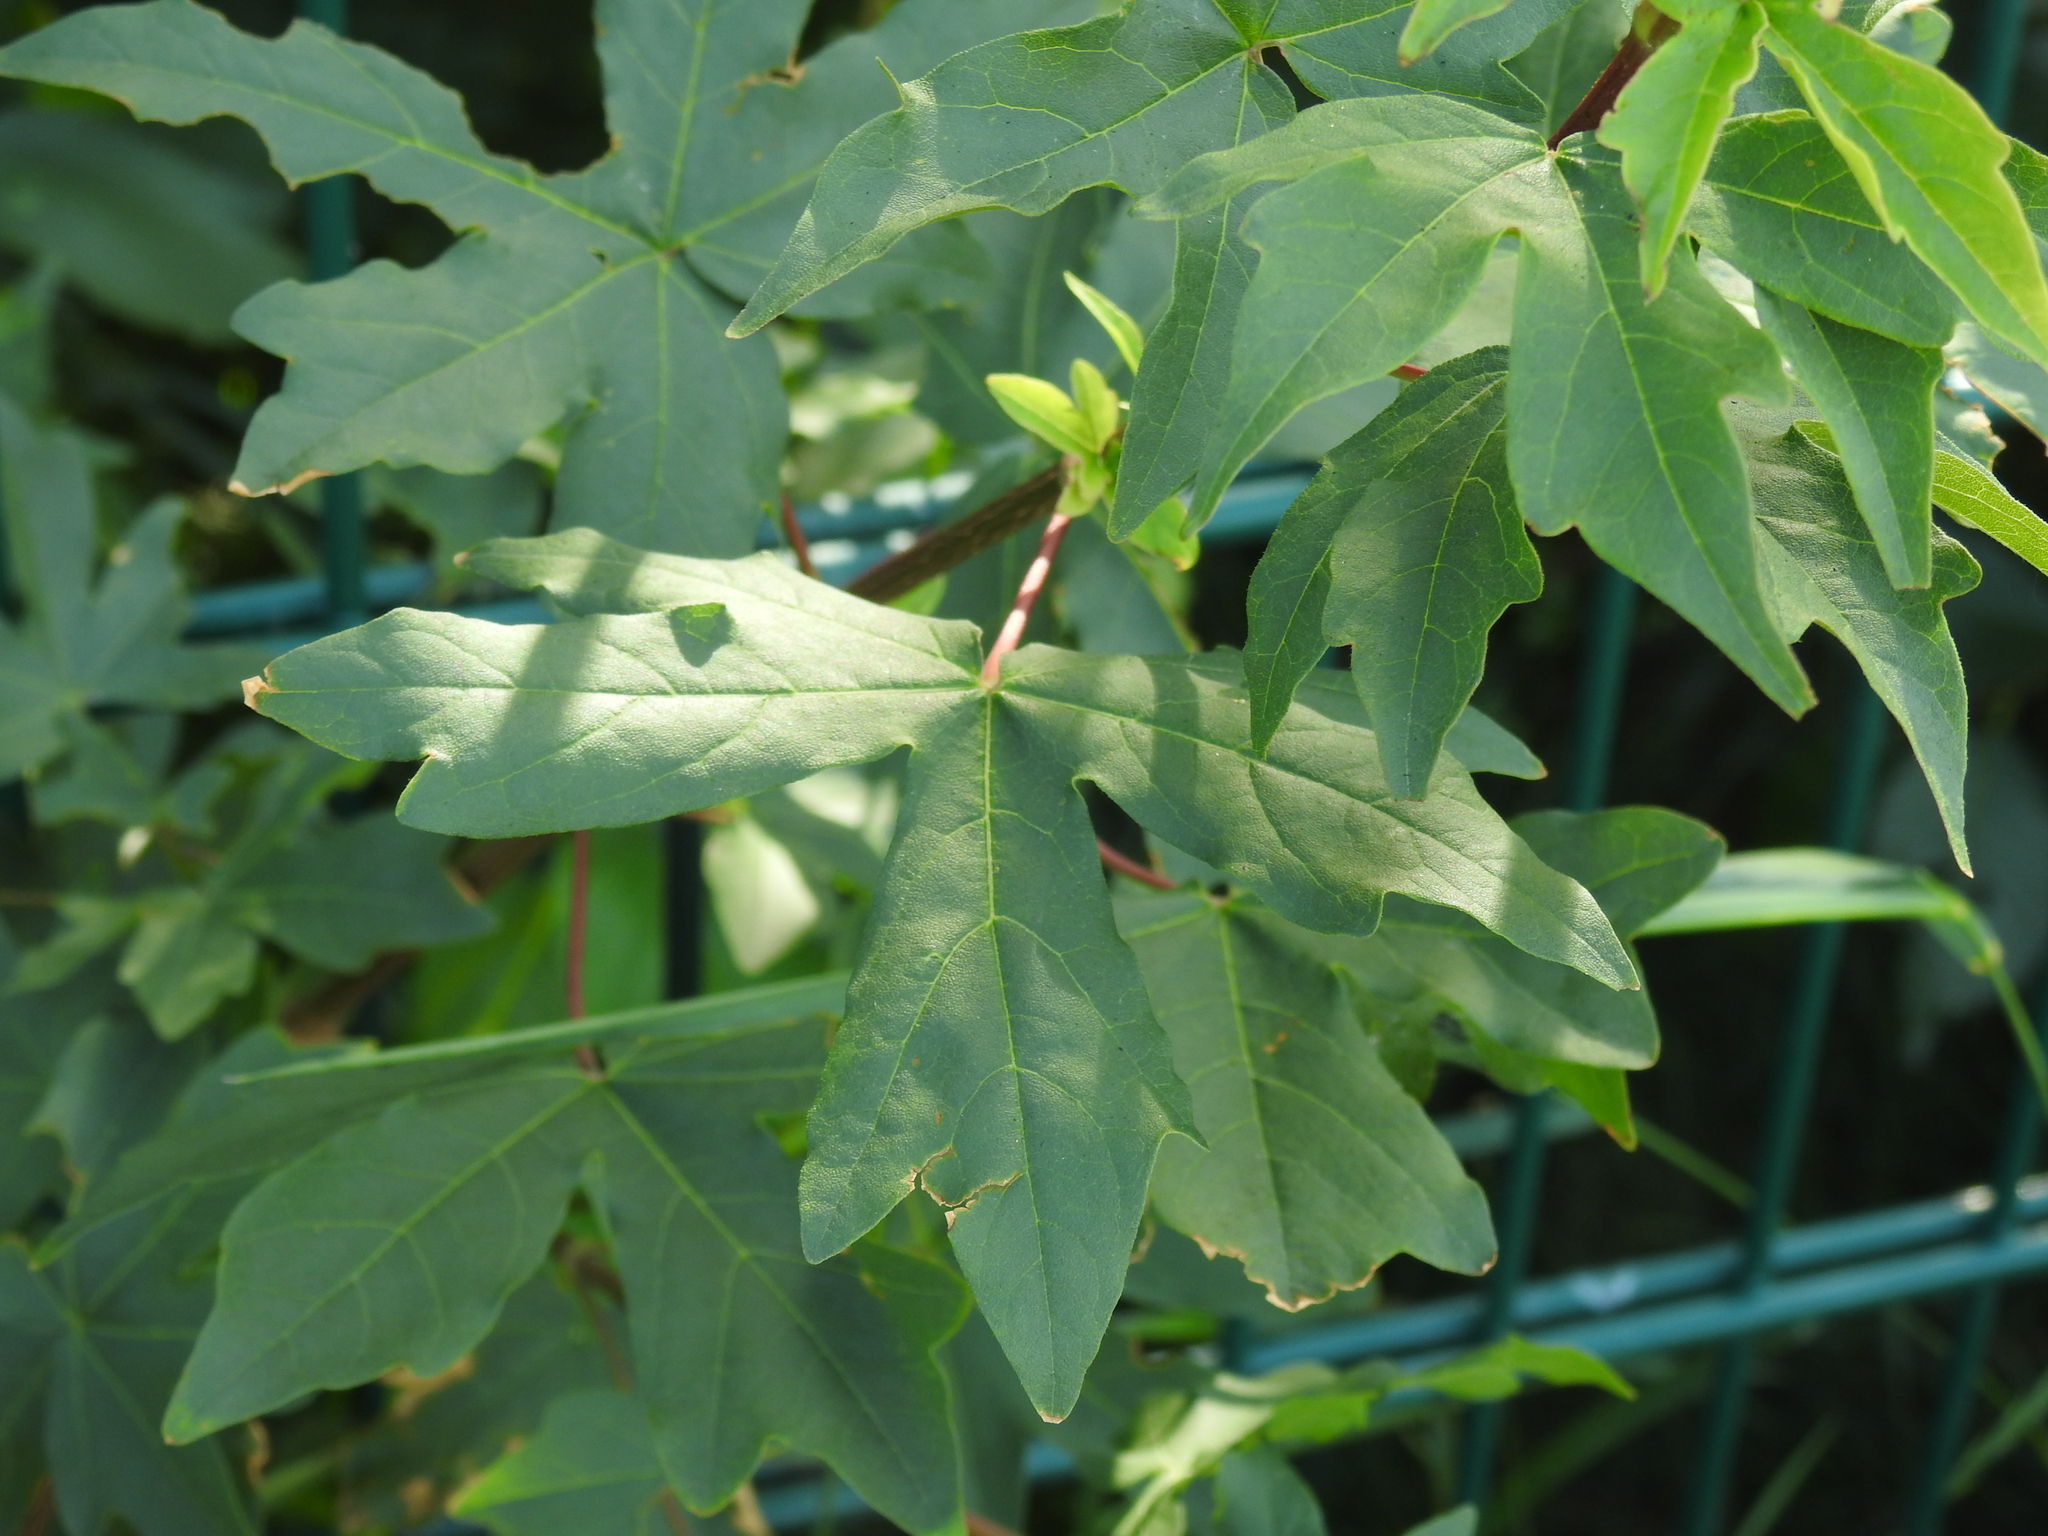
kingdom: Plantae
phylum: Tracheophyta
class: Magnoliopsida
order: Sapindales
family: Sapindaceae
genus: Acer
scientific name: Acer campestre
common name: Field maple
